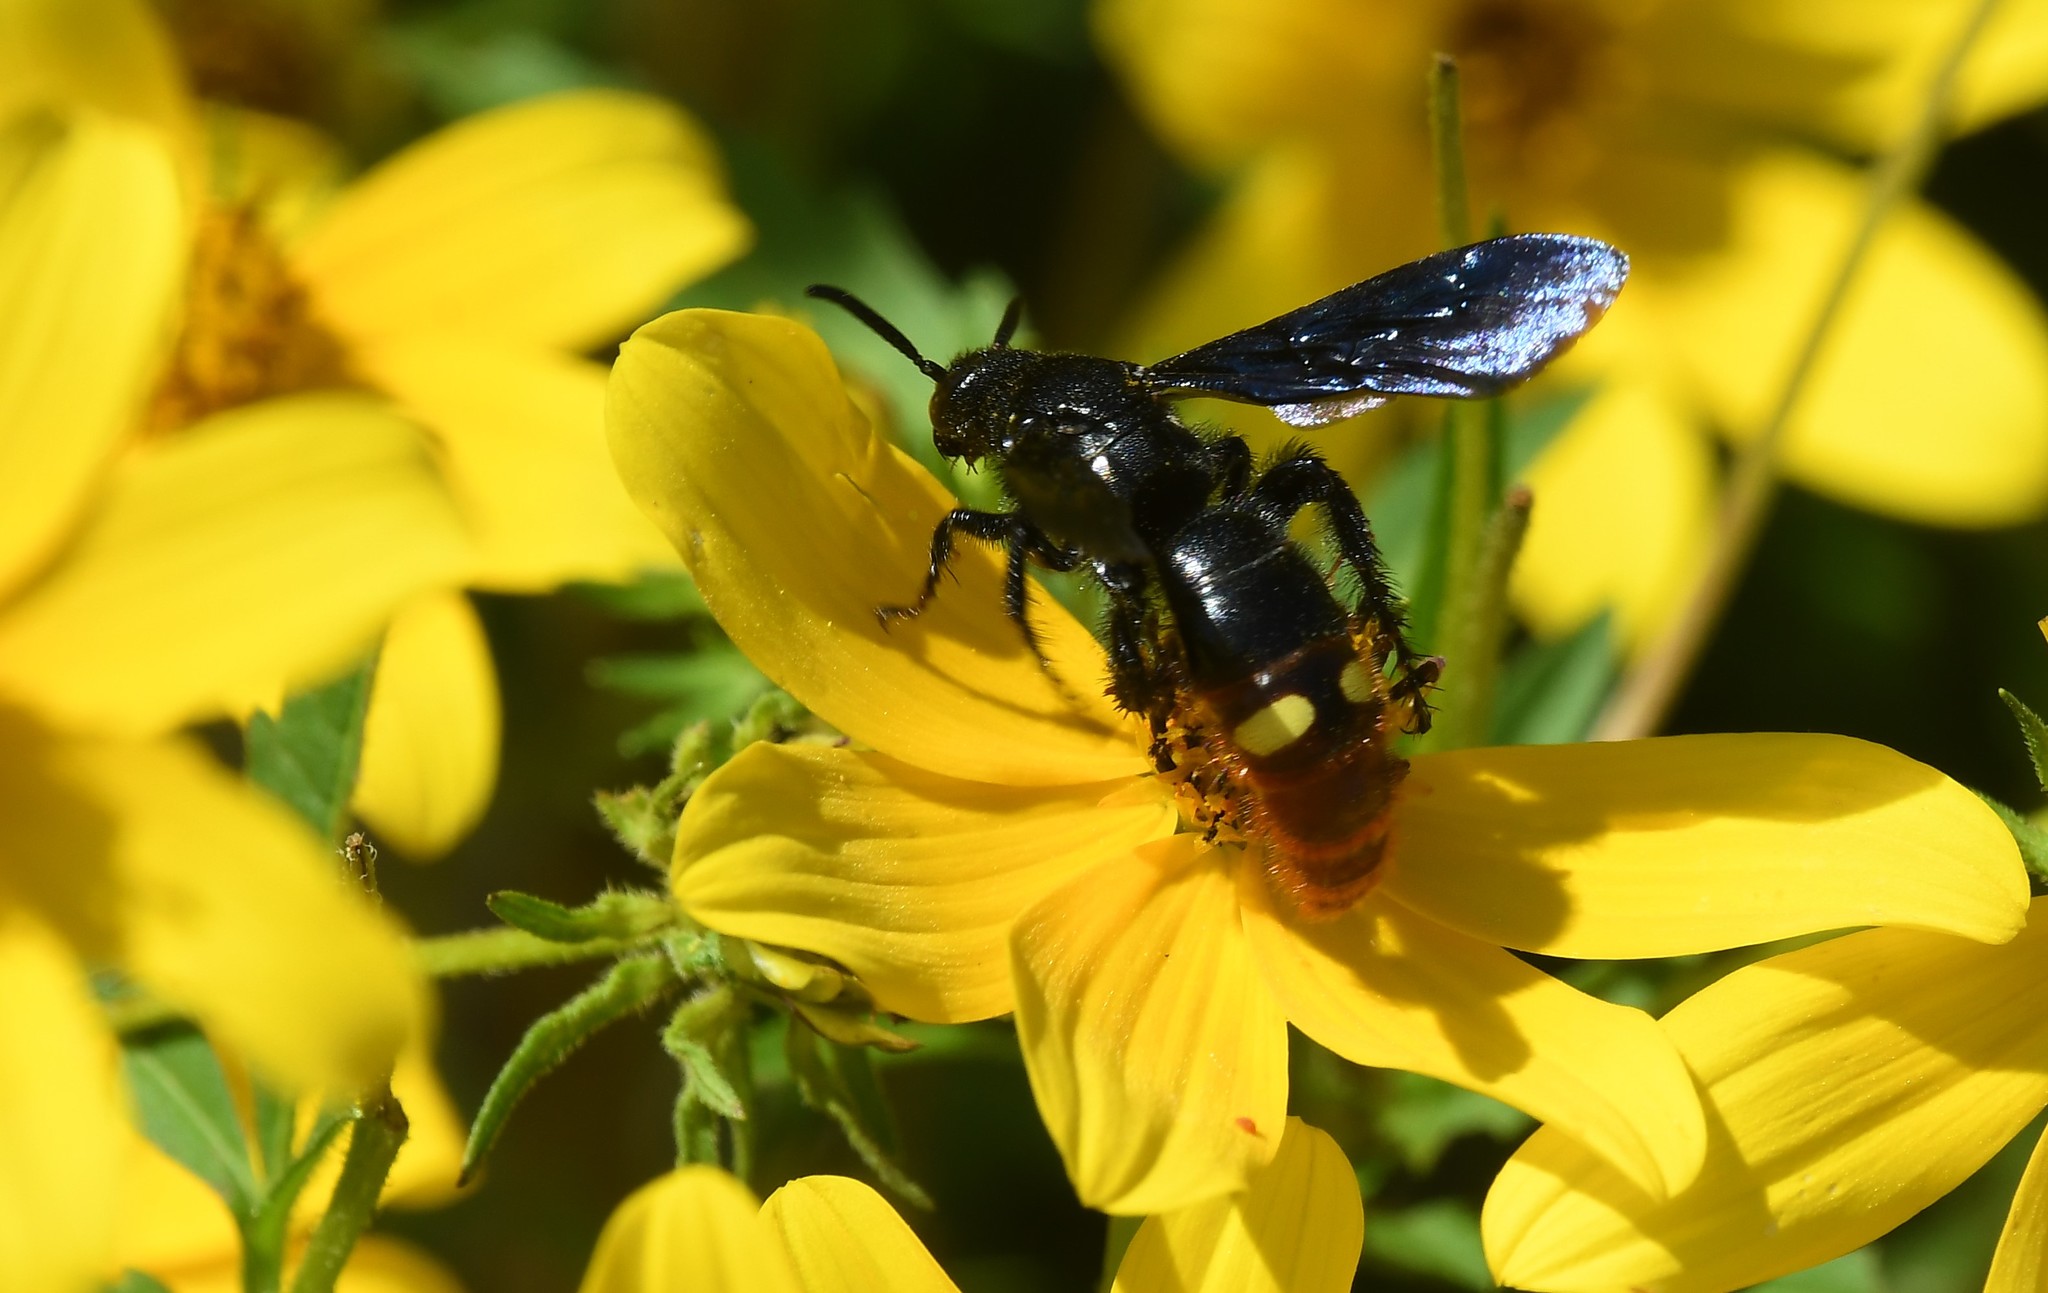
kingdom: Animalia
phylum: Arthropoda
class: Insecta
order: Hymenoptera
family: Scoliidae
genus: Scolia
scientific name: Scolia dubia
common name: Blue-winged scoliid wasp
